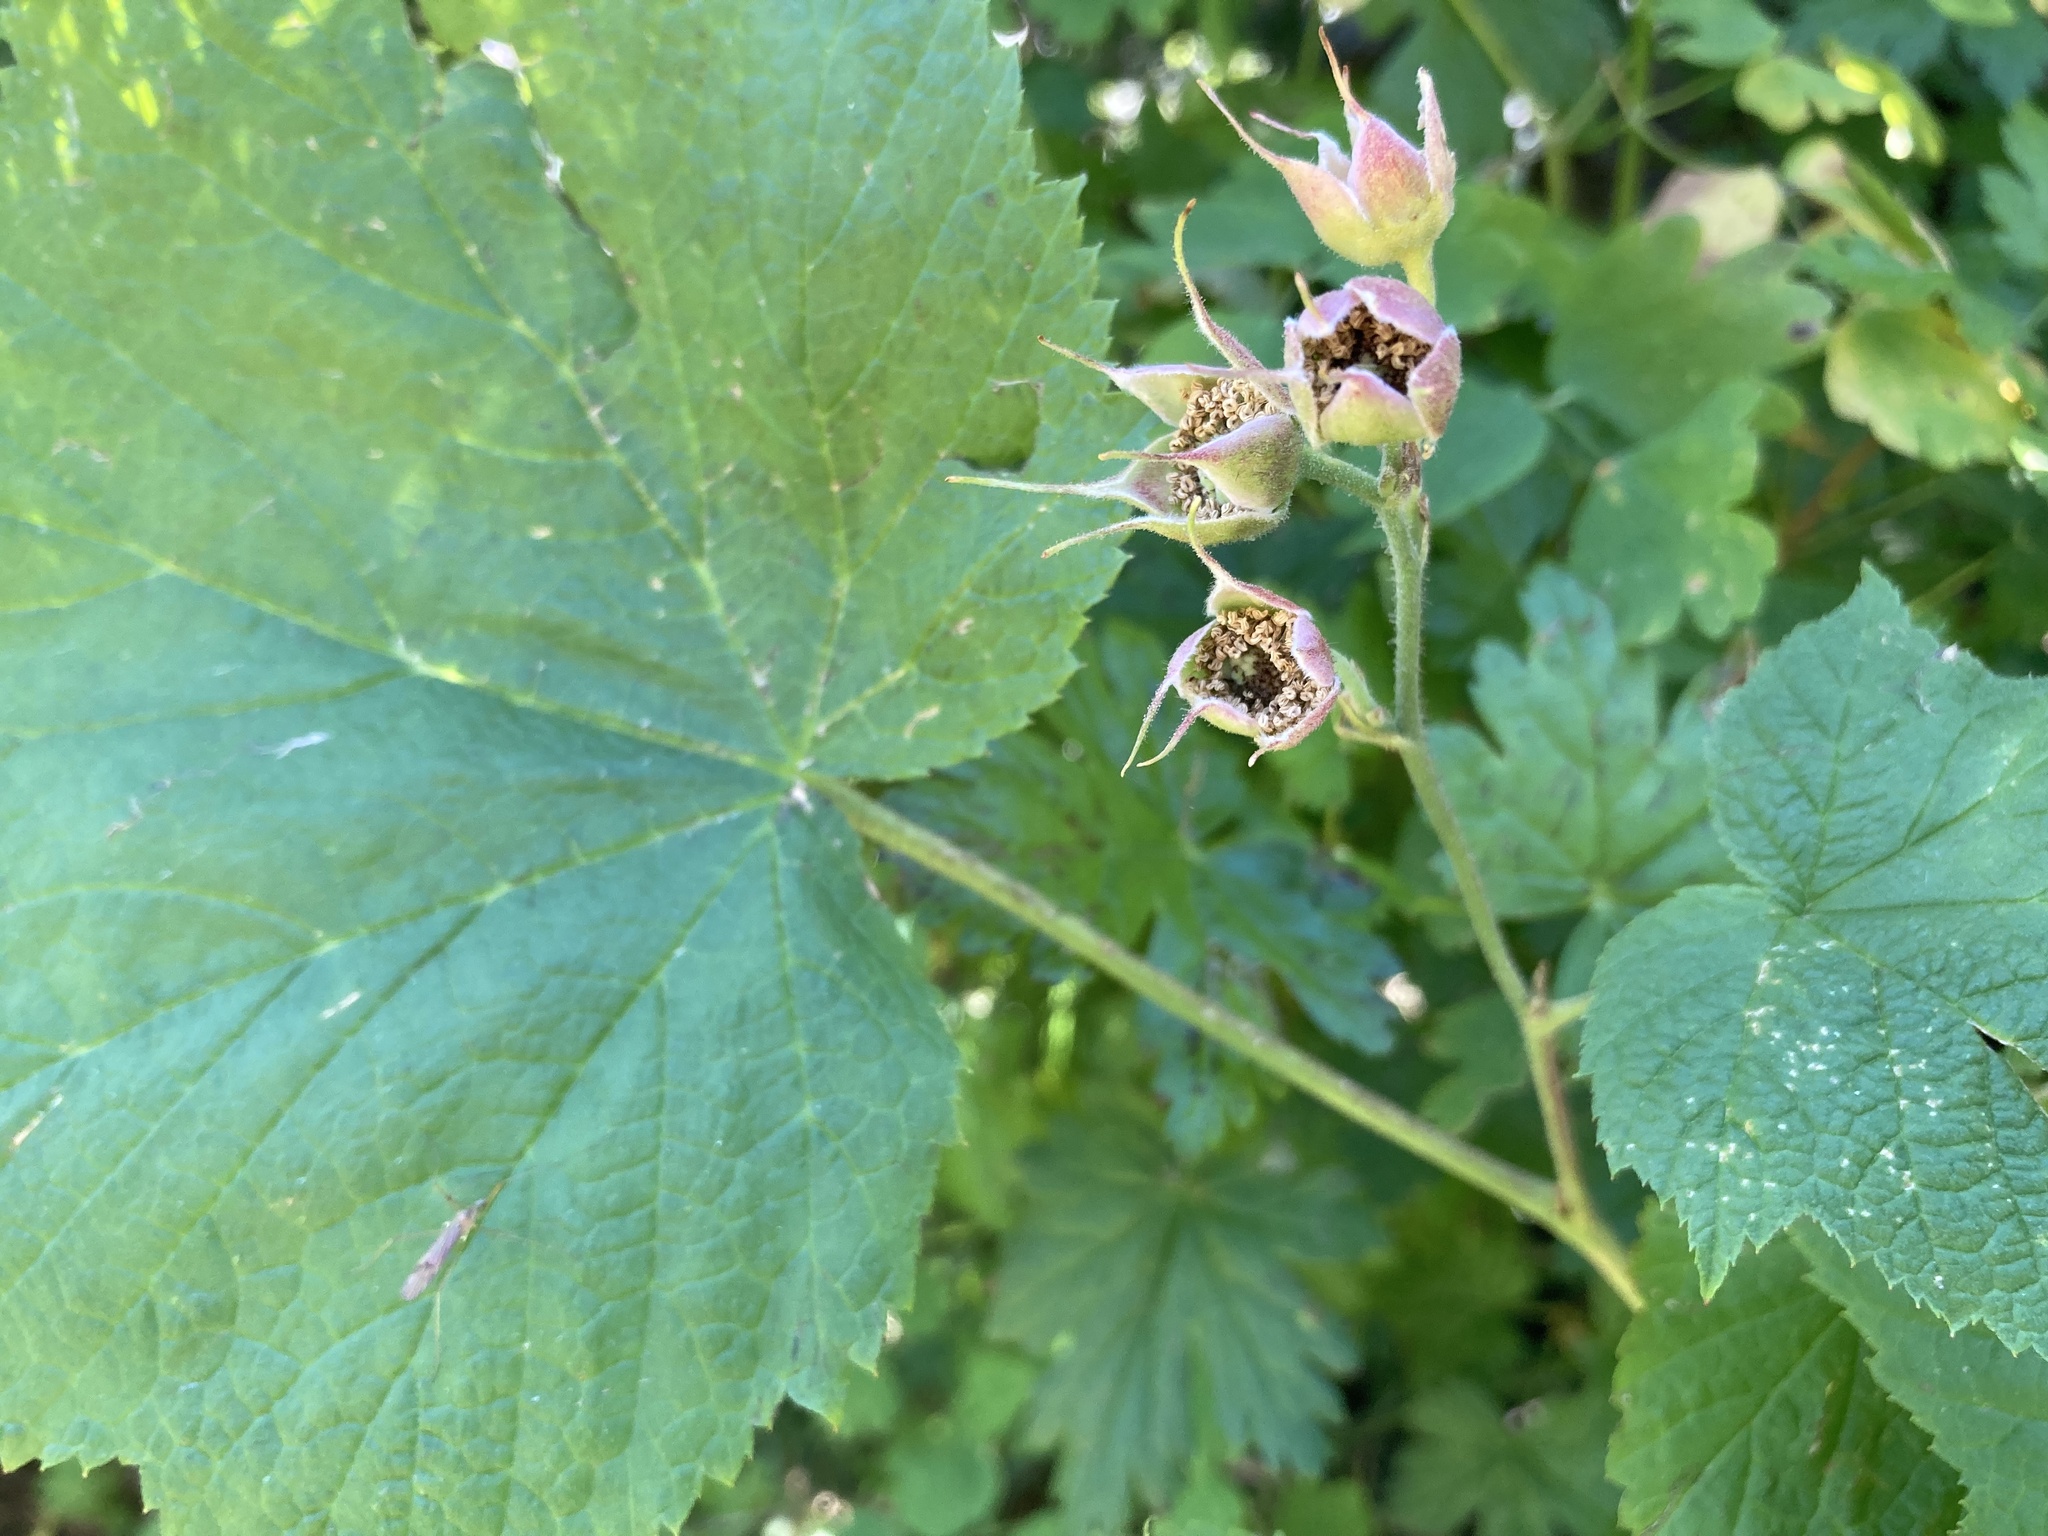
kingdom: Plantae
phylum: Tracheophyta
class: Magnoliopsida
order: Rosales
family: Rosaceae
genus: Rubus
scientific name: Rubus parviflorus
